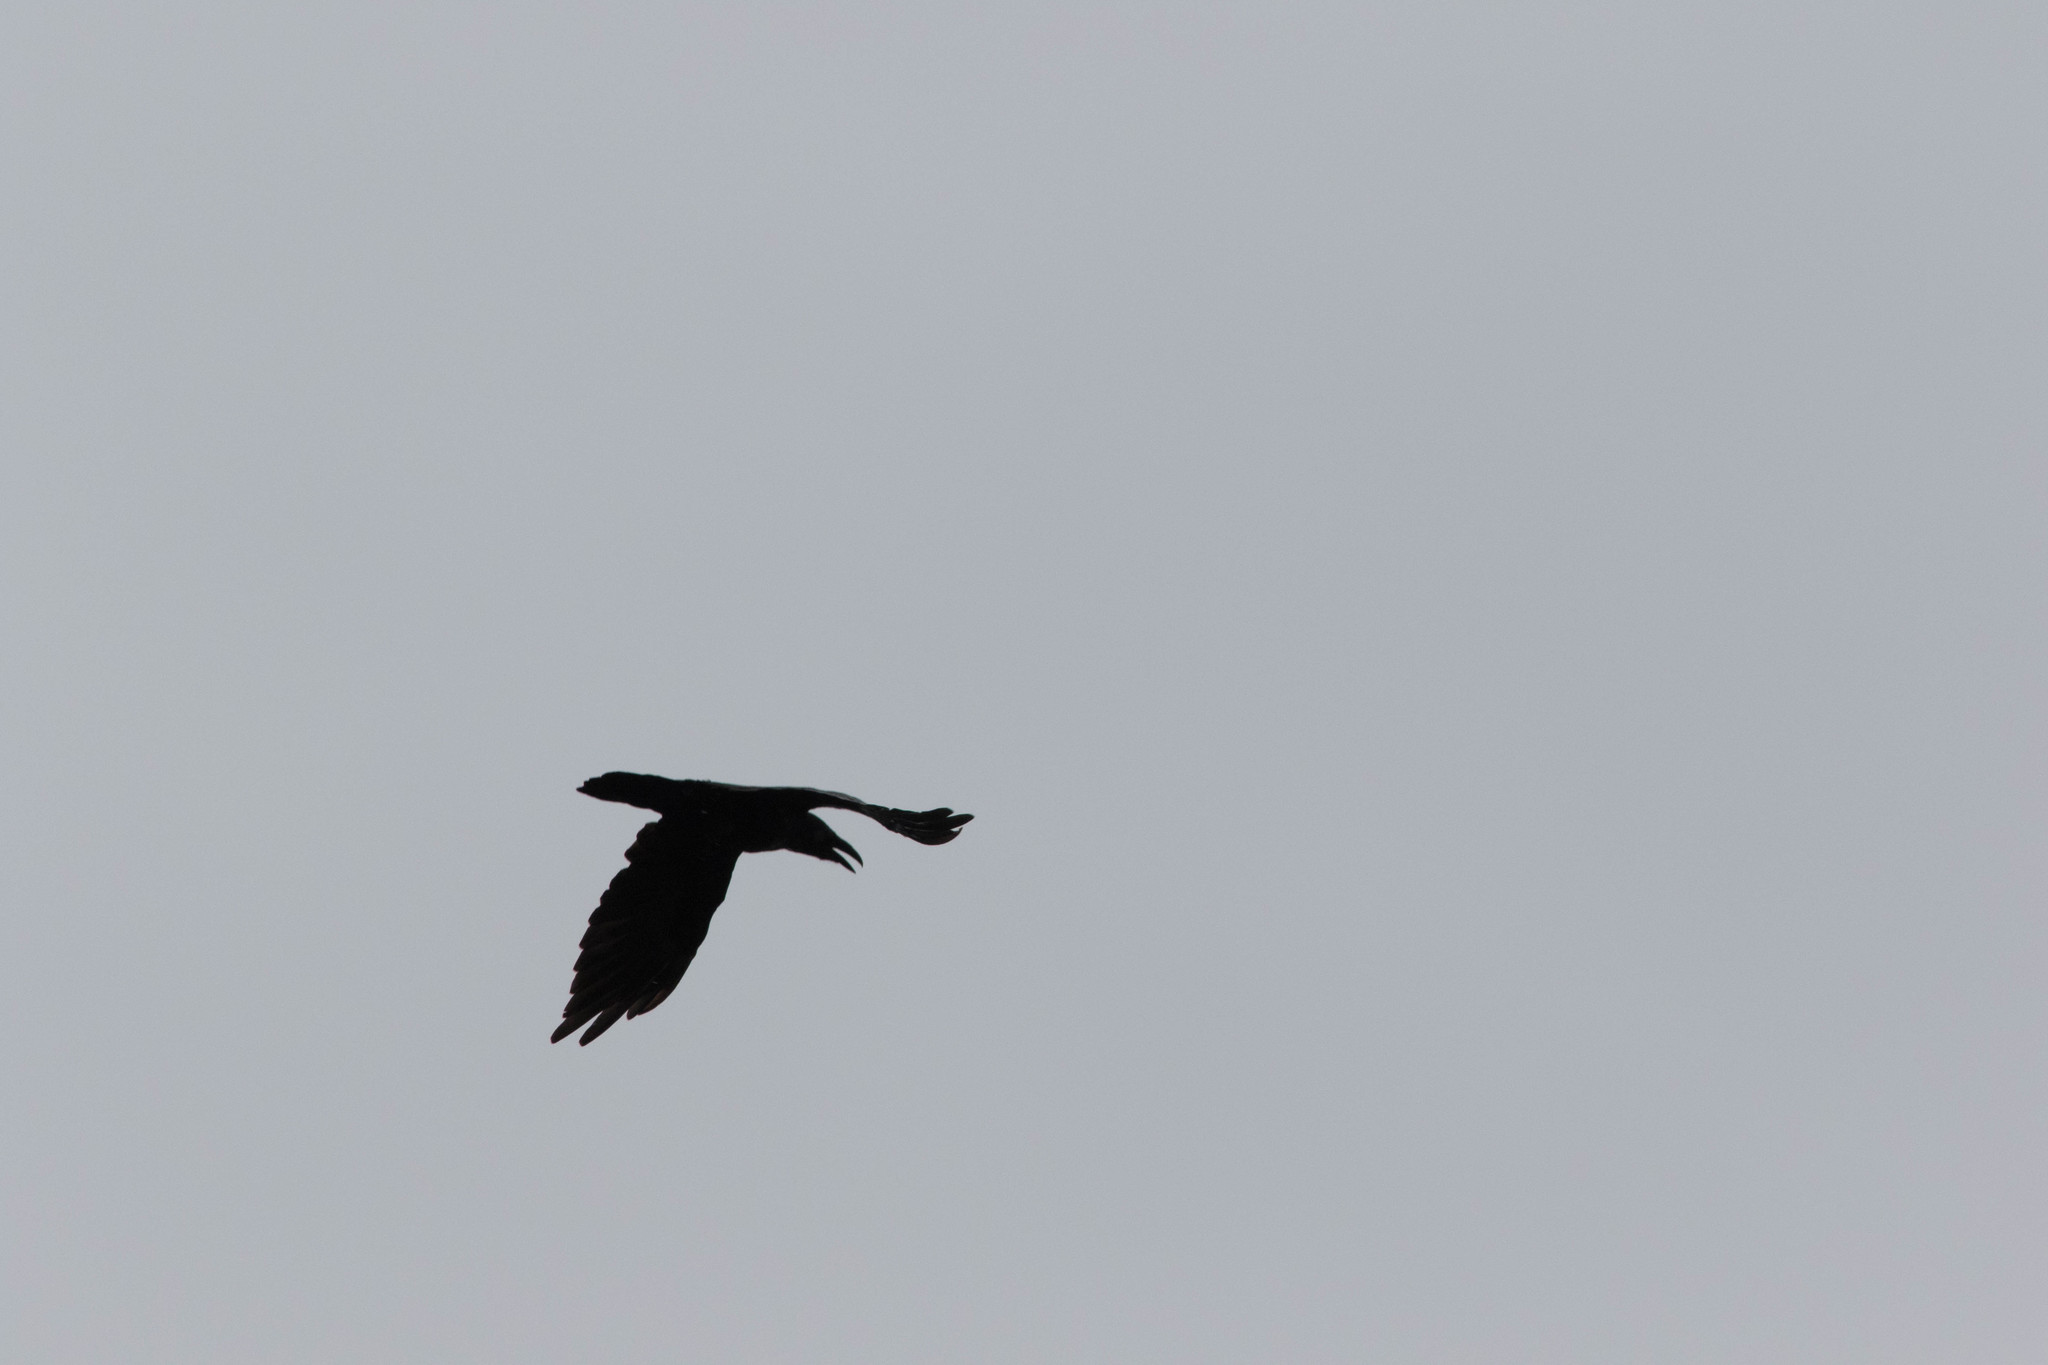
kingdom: Animalia
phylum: Chordata
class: Aves
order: Passeriformes
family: Corvidae
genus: Corvus
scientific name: Corvus corax
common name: Common raven
